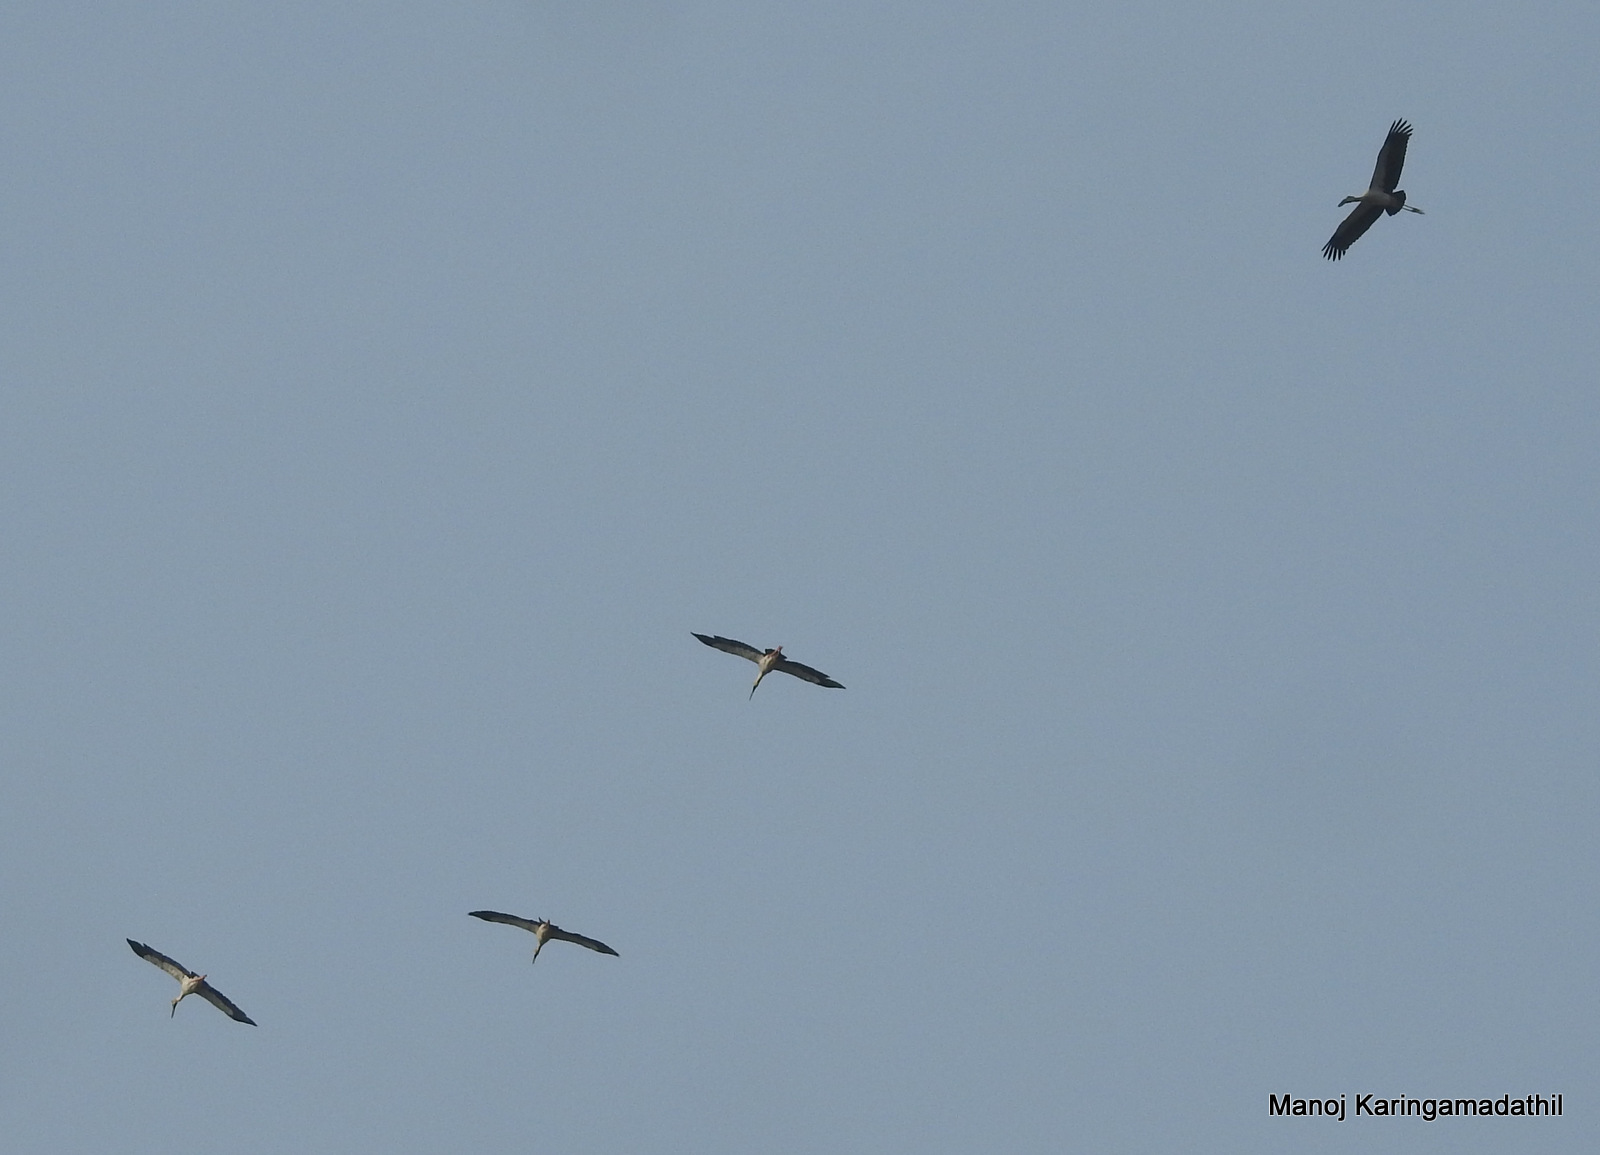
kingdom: Animalia
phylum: Chordata
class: Aves
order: Ciconiiformes
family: Ciconiidae
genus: Anastomus
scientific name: Anastomus oscitans
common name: Asian openbill
